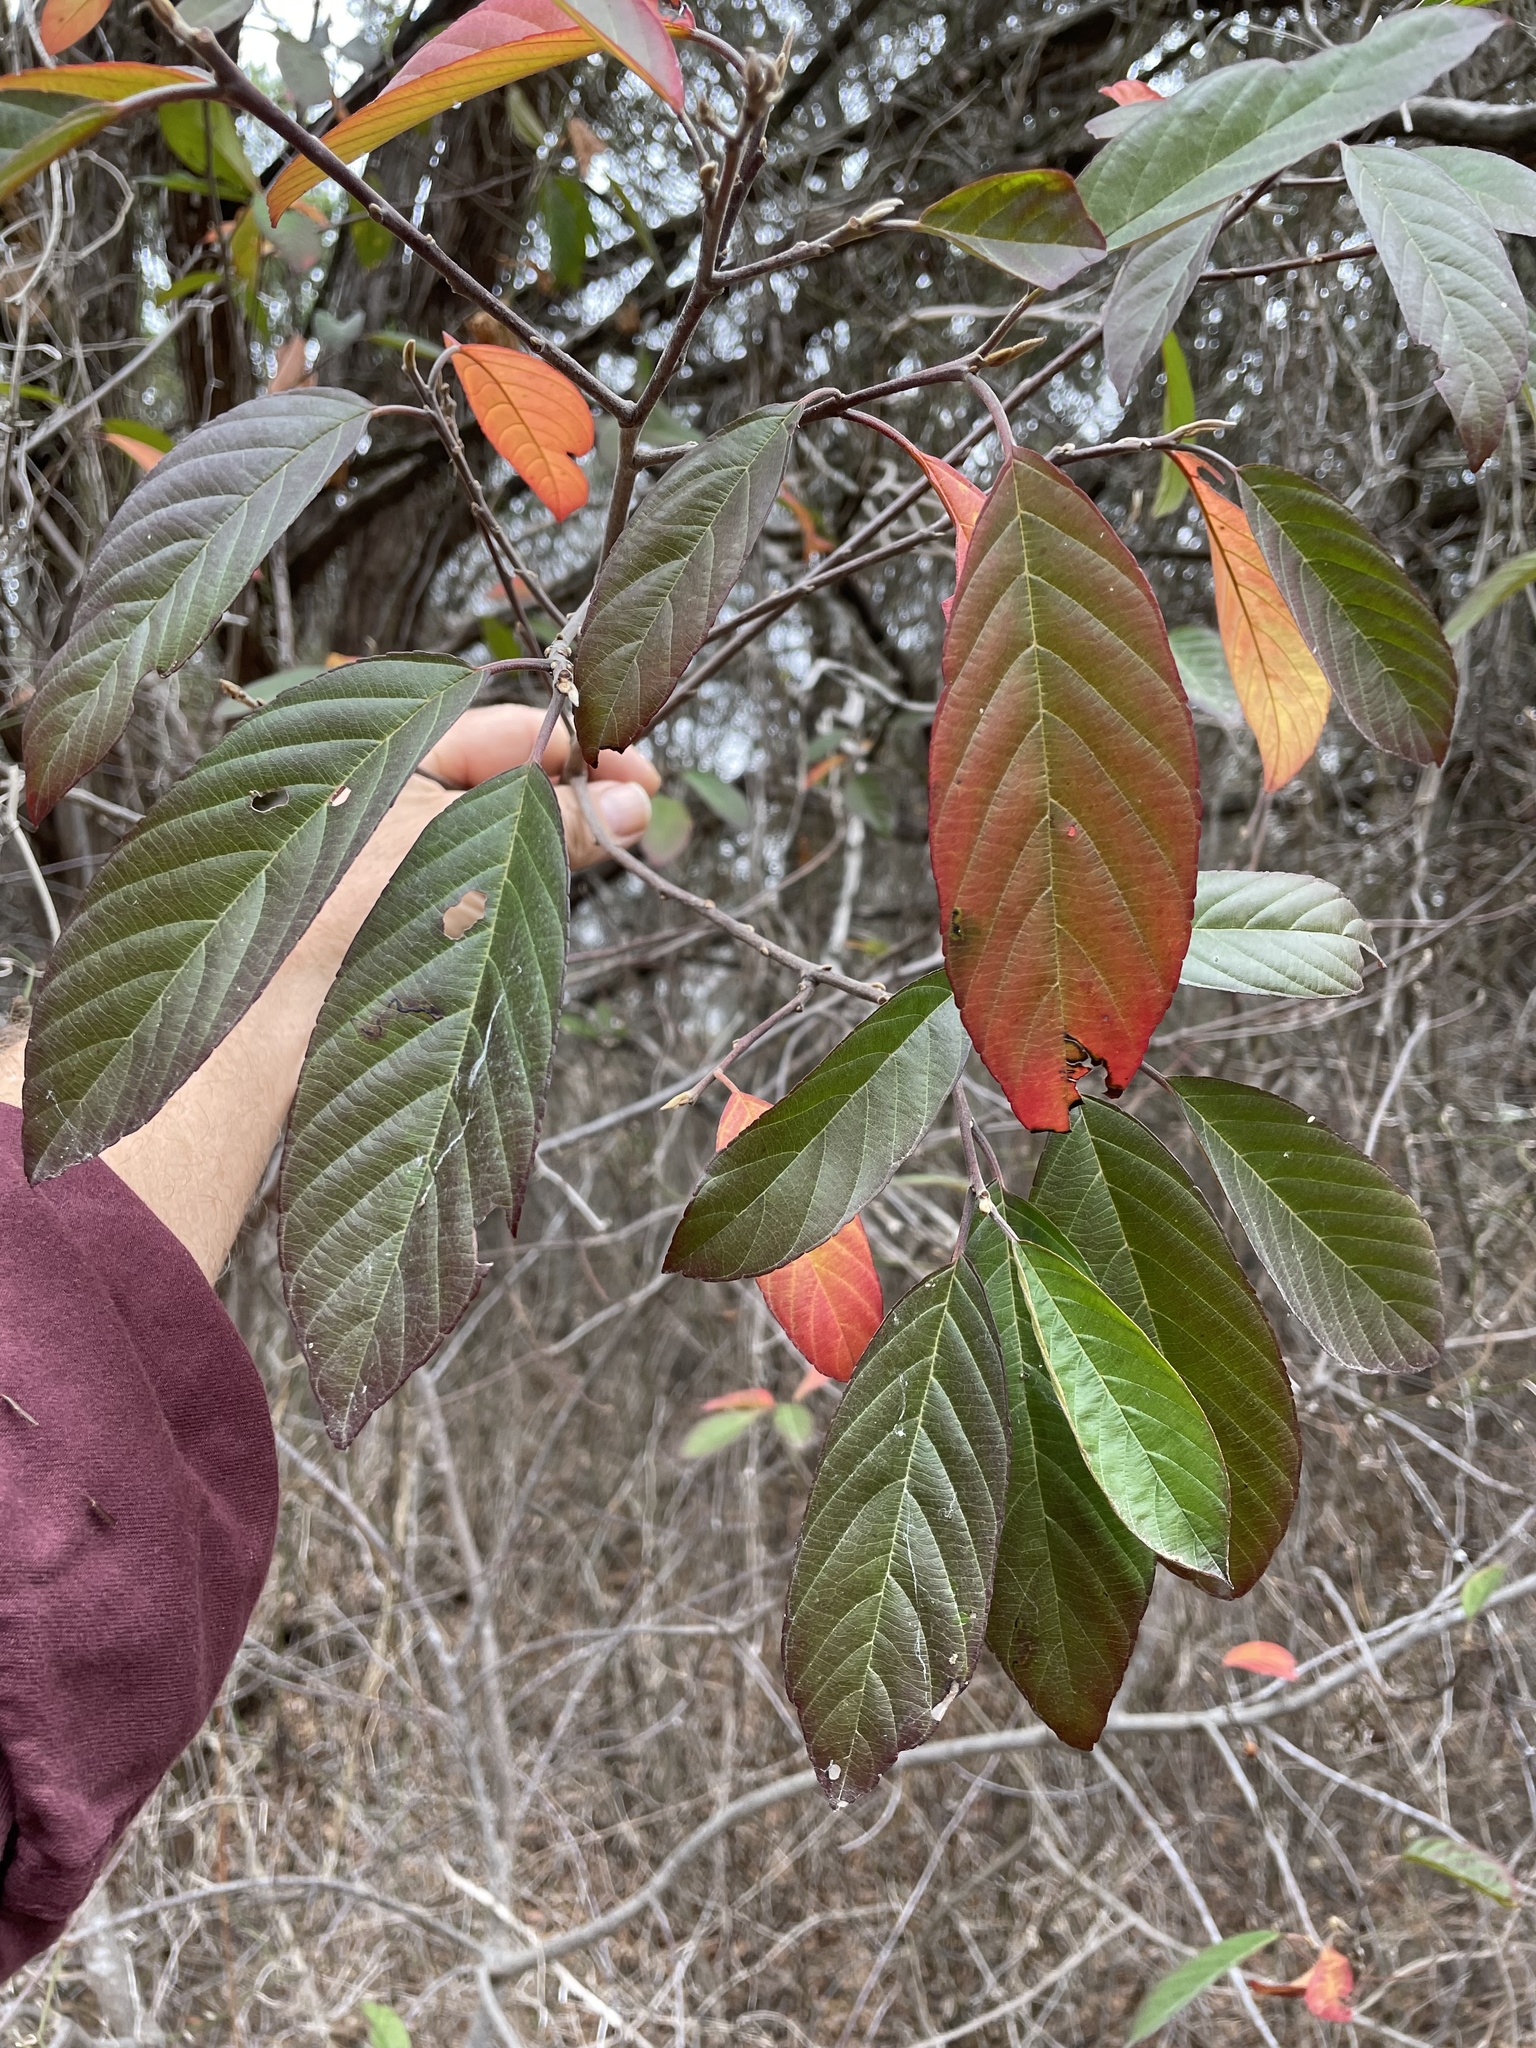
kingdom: Plantae
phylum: Tracheophyta
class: Magnoliopsida
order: Rosales
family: Rhamnaceae
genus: Frangula
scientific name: Frangula caroliniana
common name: Carolina buckthorn
